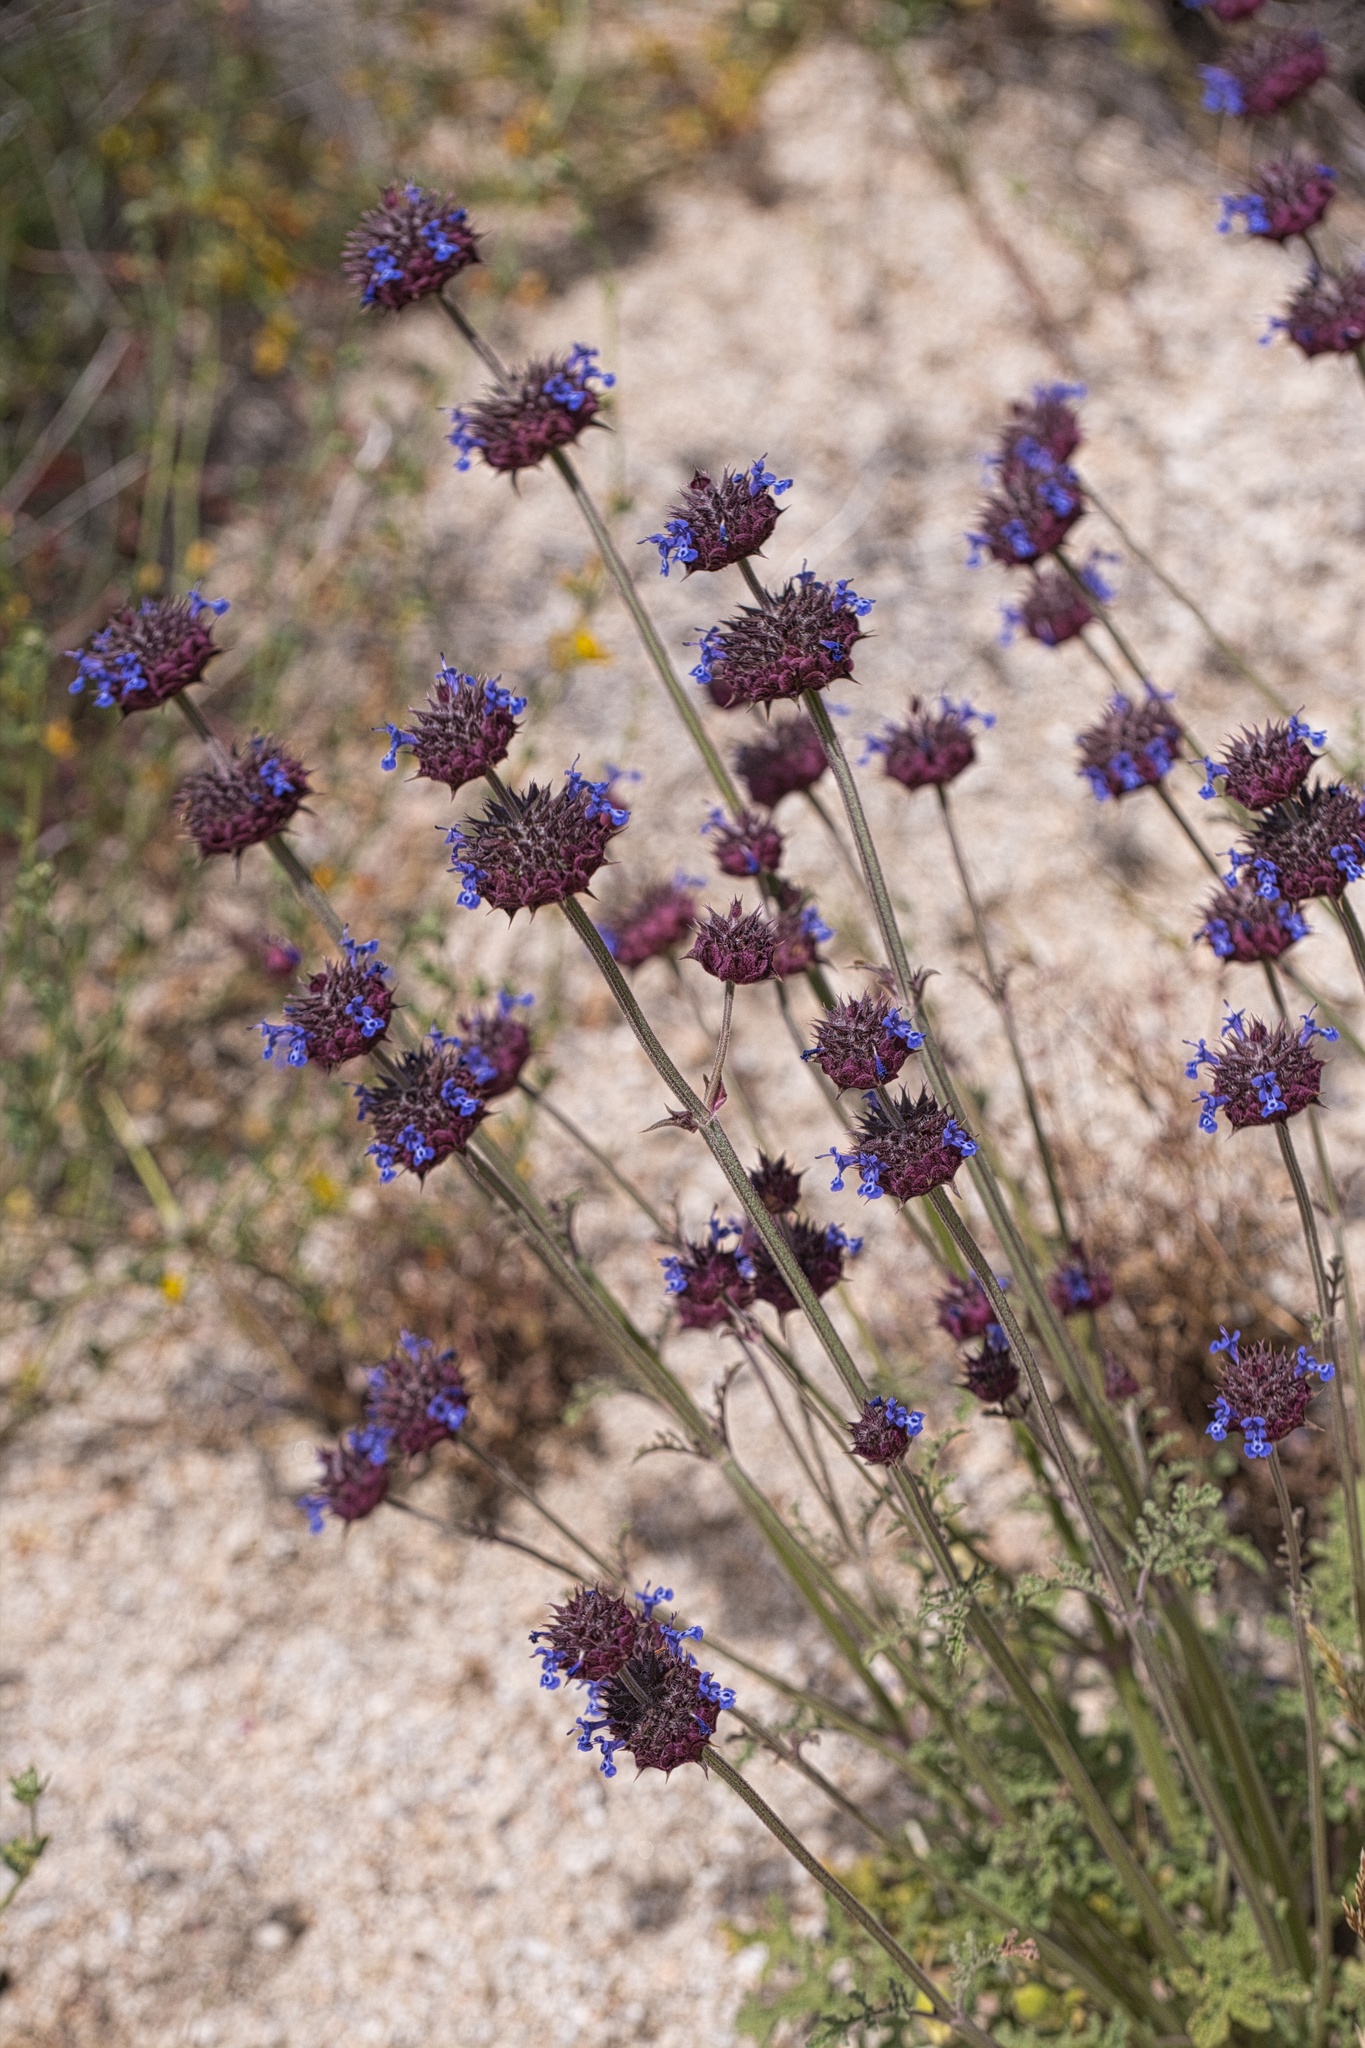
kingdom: Plantae
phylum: Tracheophyta
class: Magnoliopsida
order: Lamiales
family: Lamiaceae
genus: Salvia
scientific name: Salvia columbariae
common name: Chia
